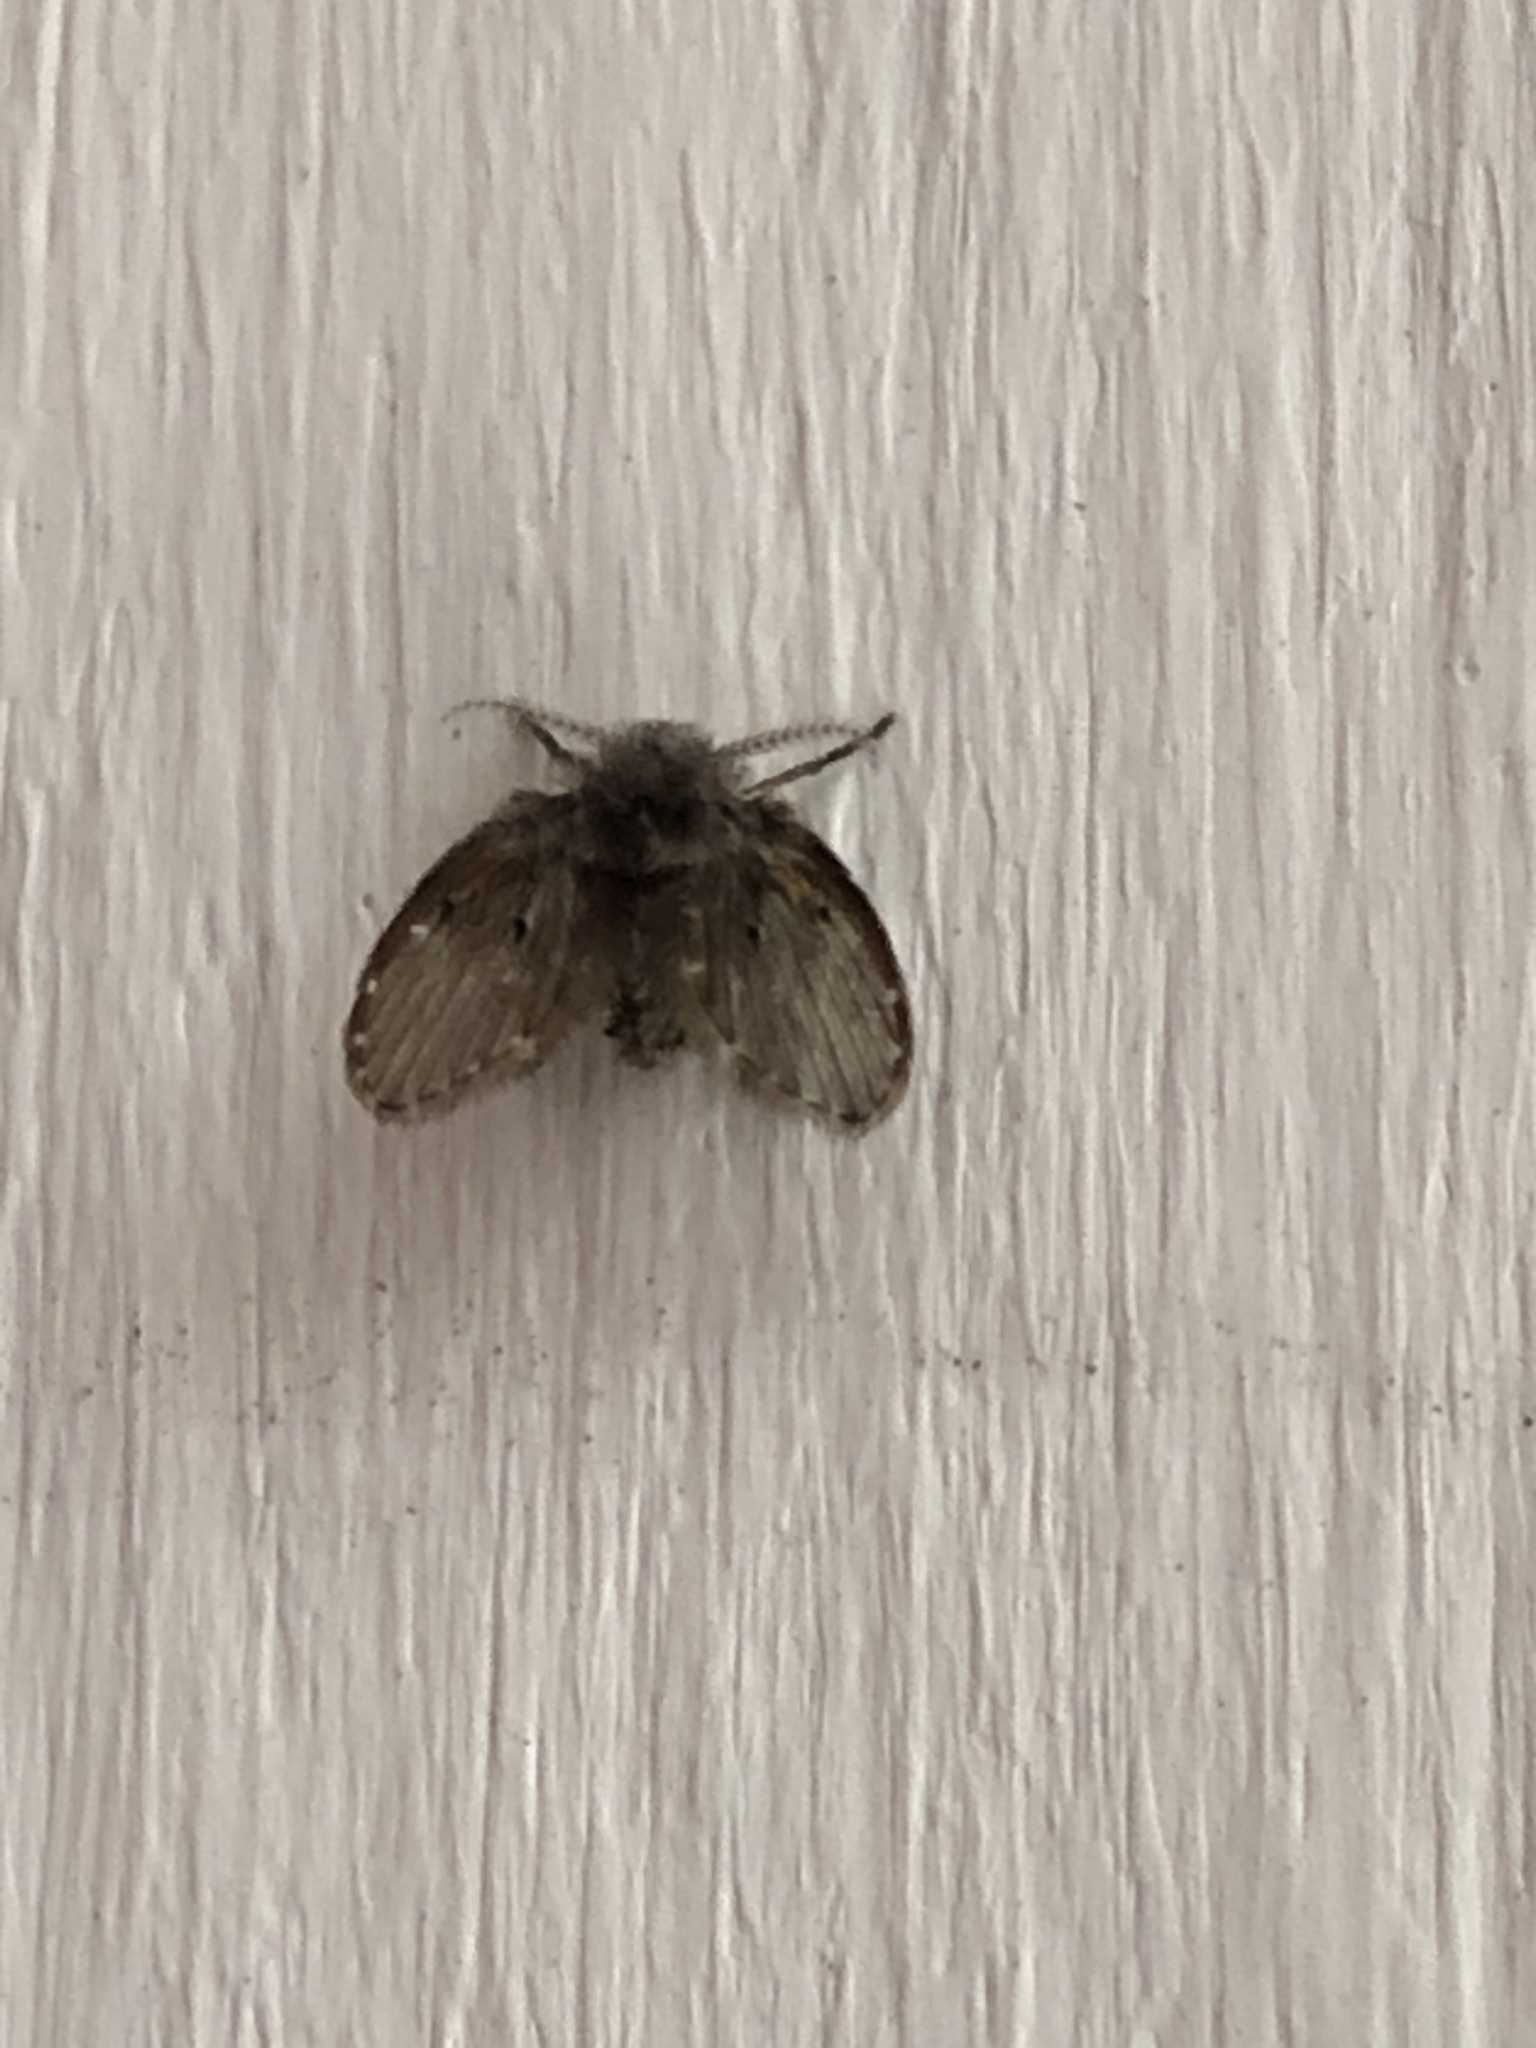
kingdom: Animalia
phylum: Arthropoda
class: Insecta
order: Diptera
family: Psychodidae
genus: Clogmia
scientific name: Clogmia albipunctatus
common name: White-spotted moth fly
